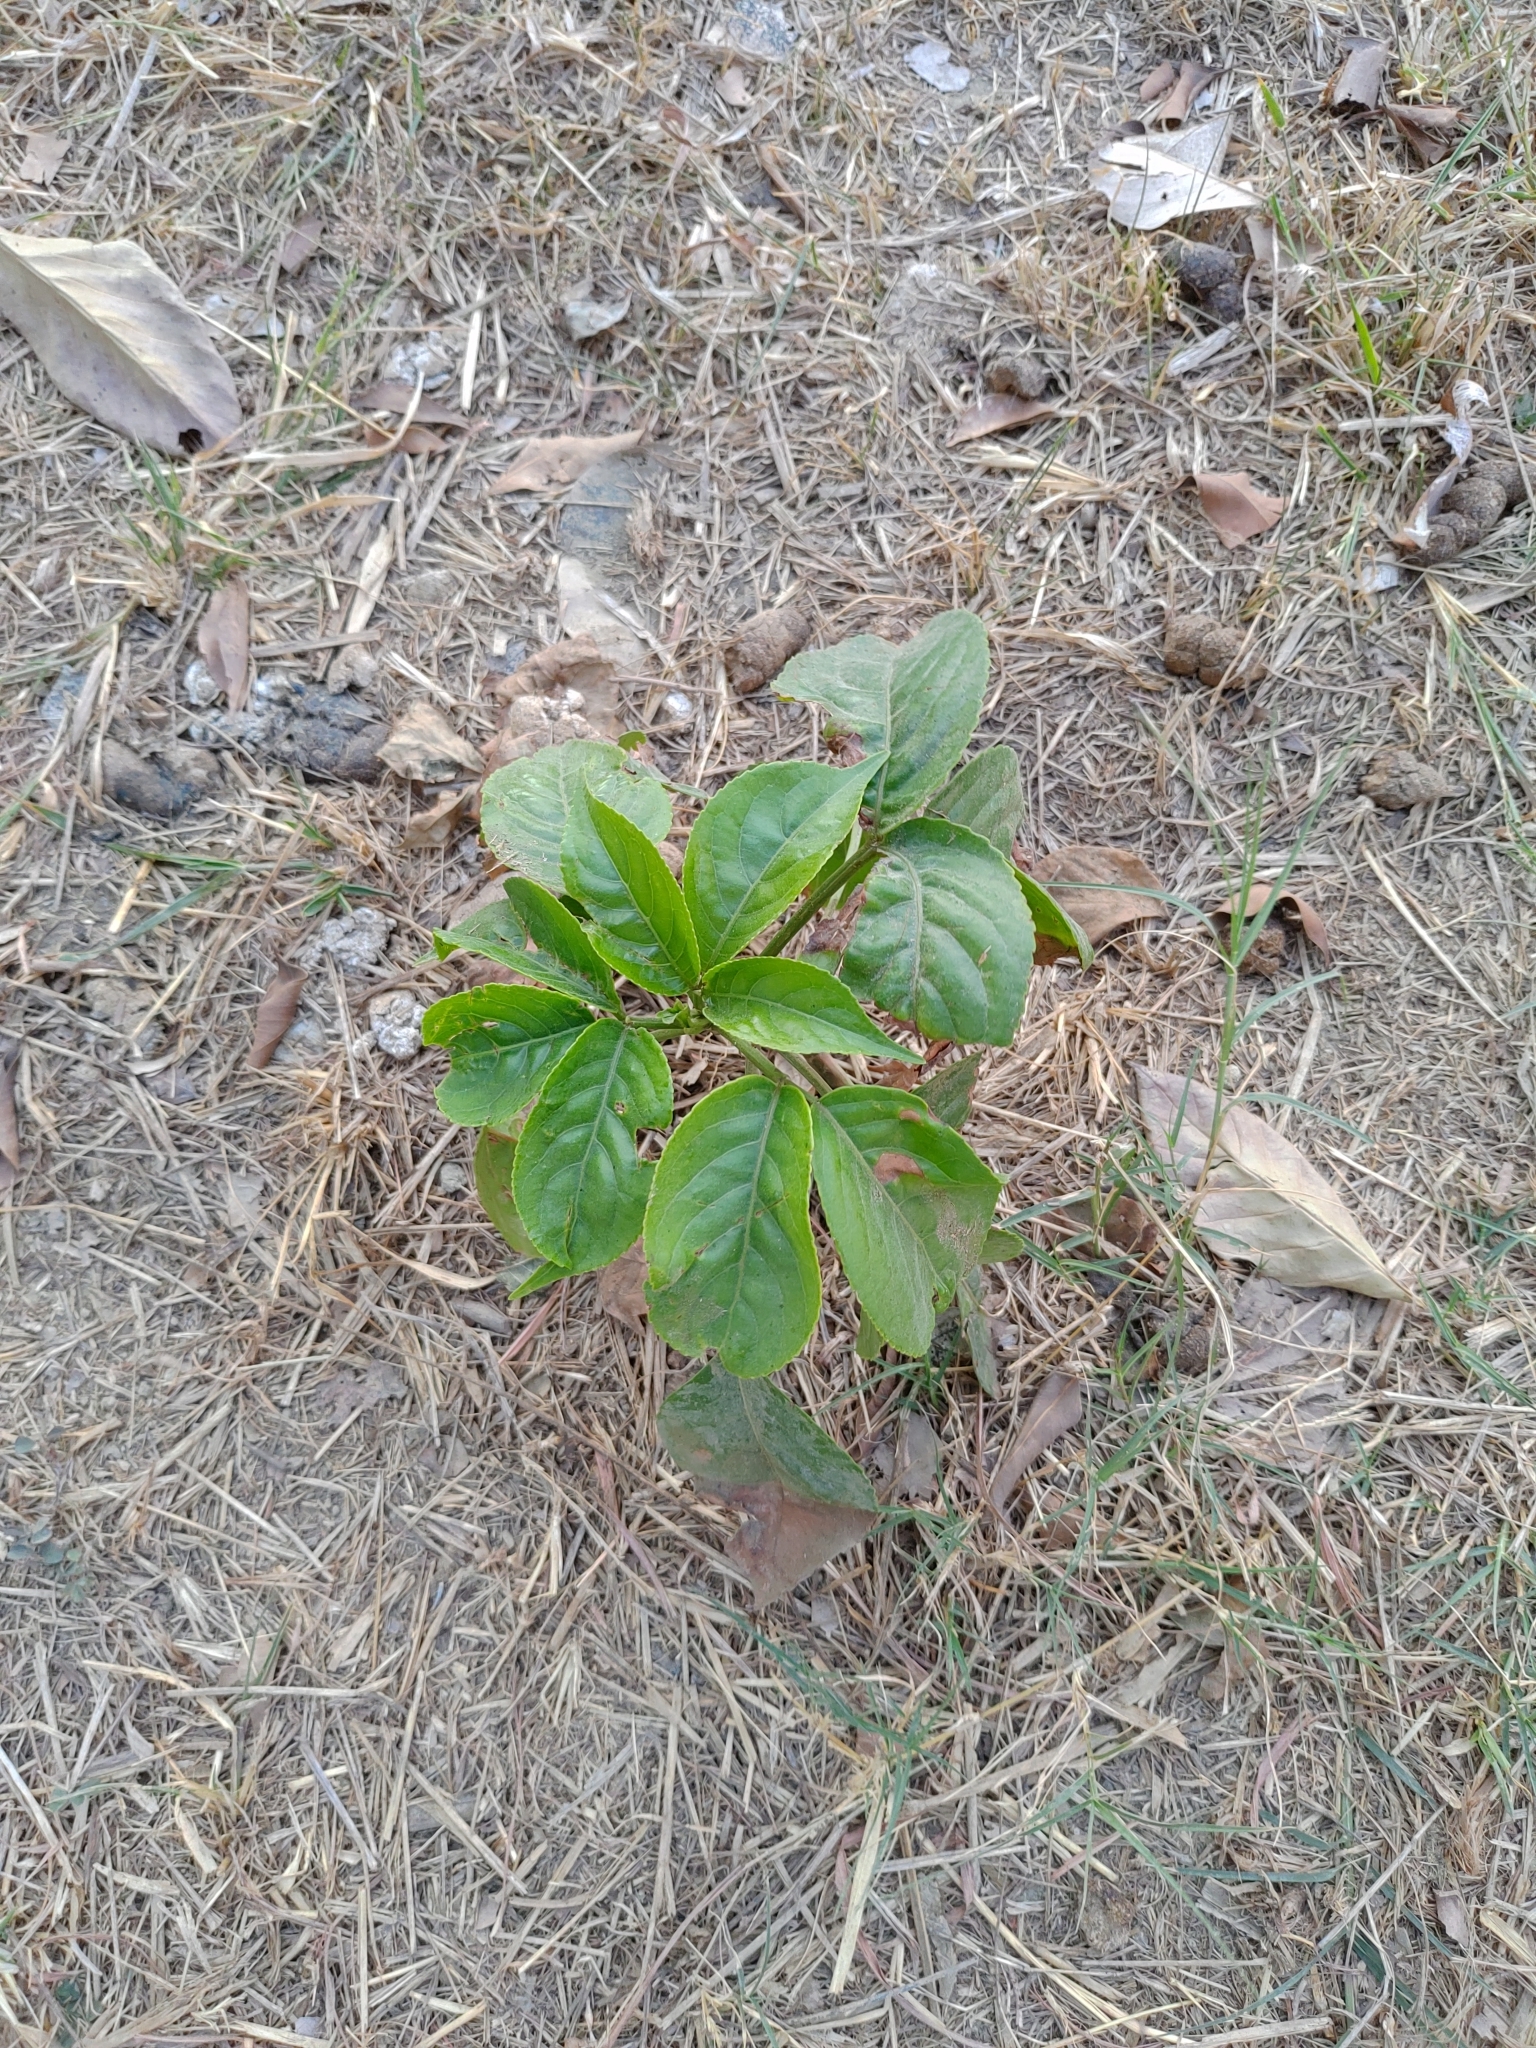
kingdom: Plantae
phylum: Tracheophyta
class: Magnoliopsida
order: Malpighiales
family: Phyllanthaceae
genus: Bischofia
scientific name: Bischofia javanica
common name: Javanese bishopwood
